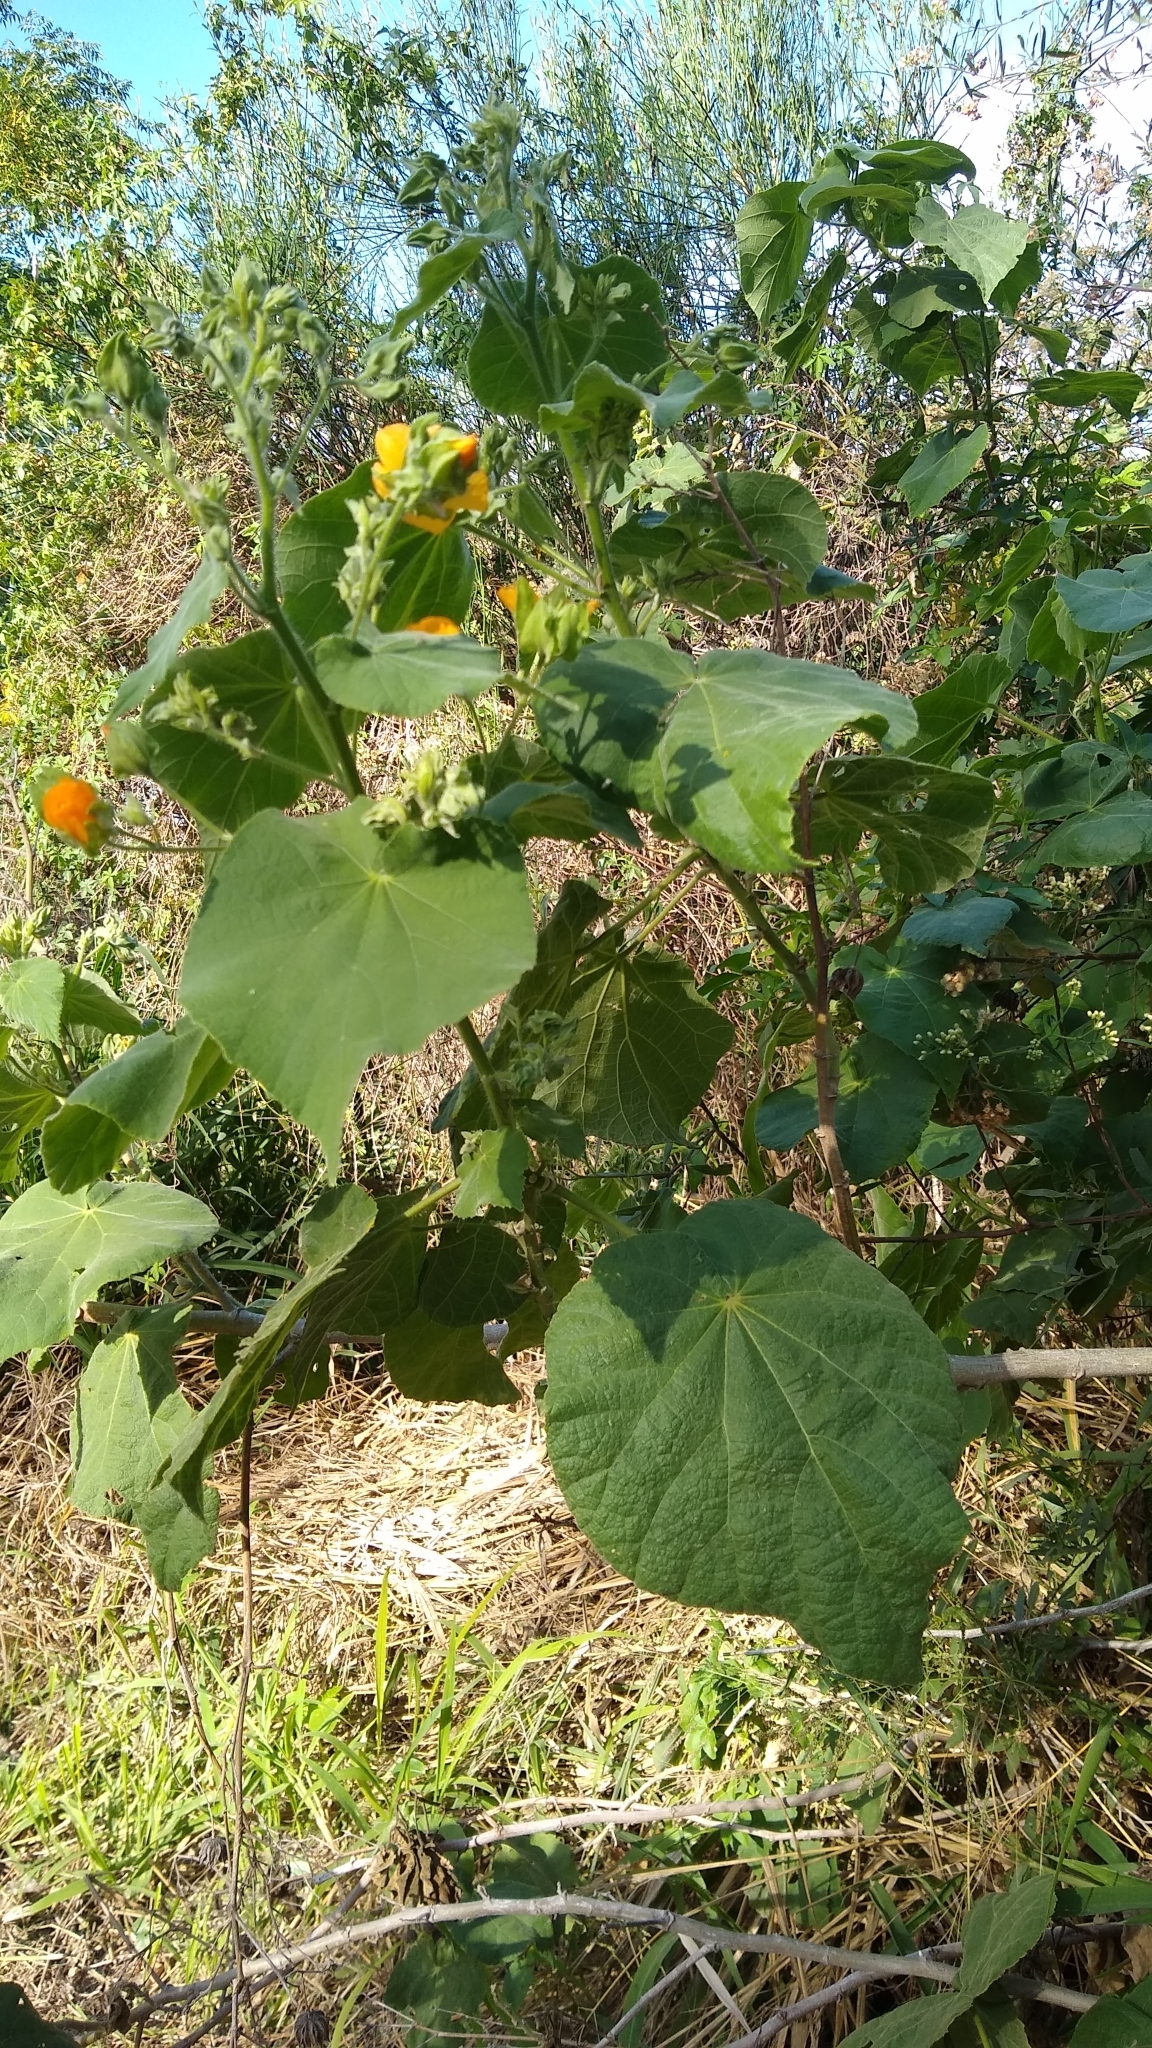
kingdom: Plantae
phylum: Tracheophyta
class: Magnoliopsida
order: Malvales
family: Malvaceae
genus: Abutilon
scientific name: Abutilon grandifolium
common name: Hairy abutilon
